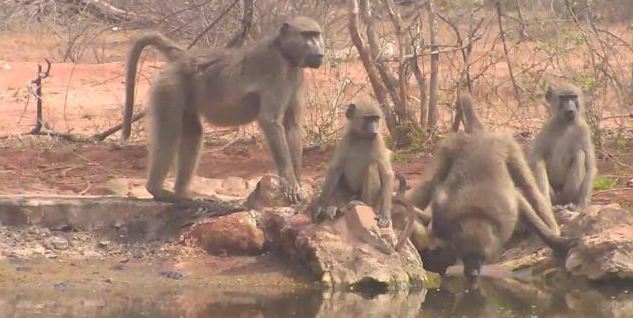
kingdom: Animalia
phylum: Chordata
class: Mammalia
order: Primates
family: Cercopithecidae
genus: Papio
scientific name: Papio ursinus
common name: Chacma baboon
